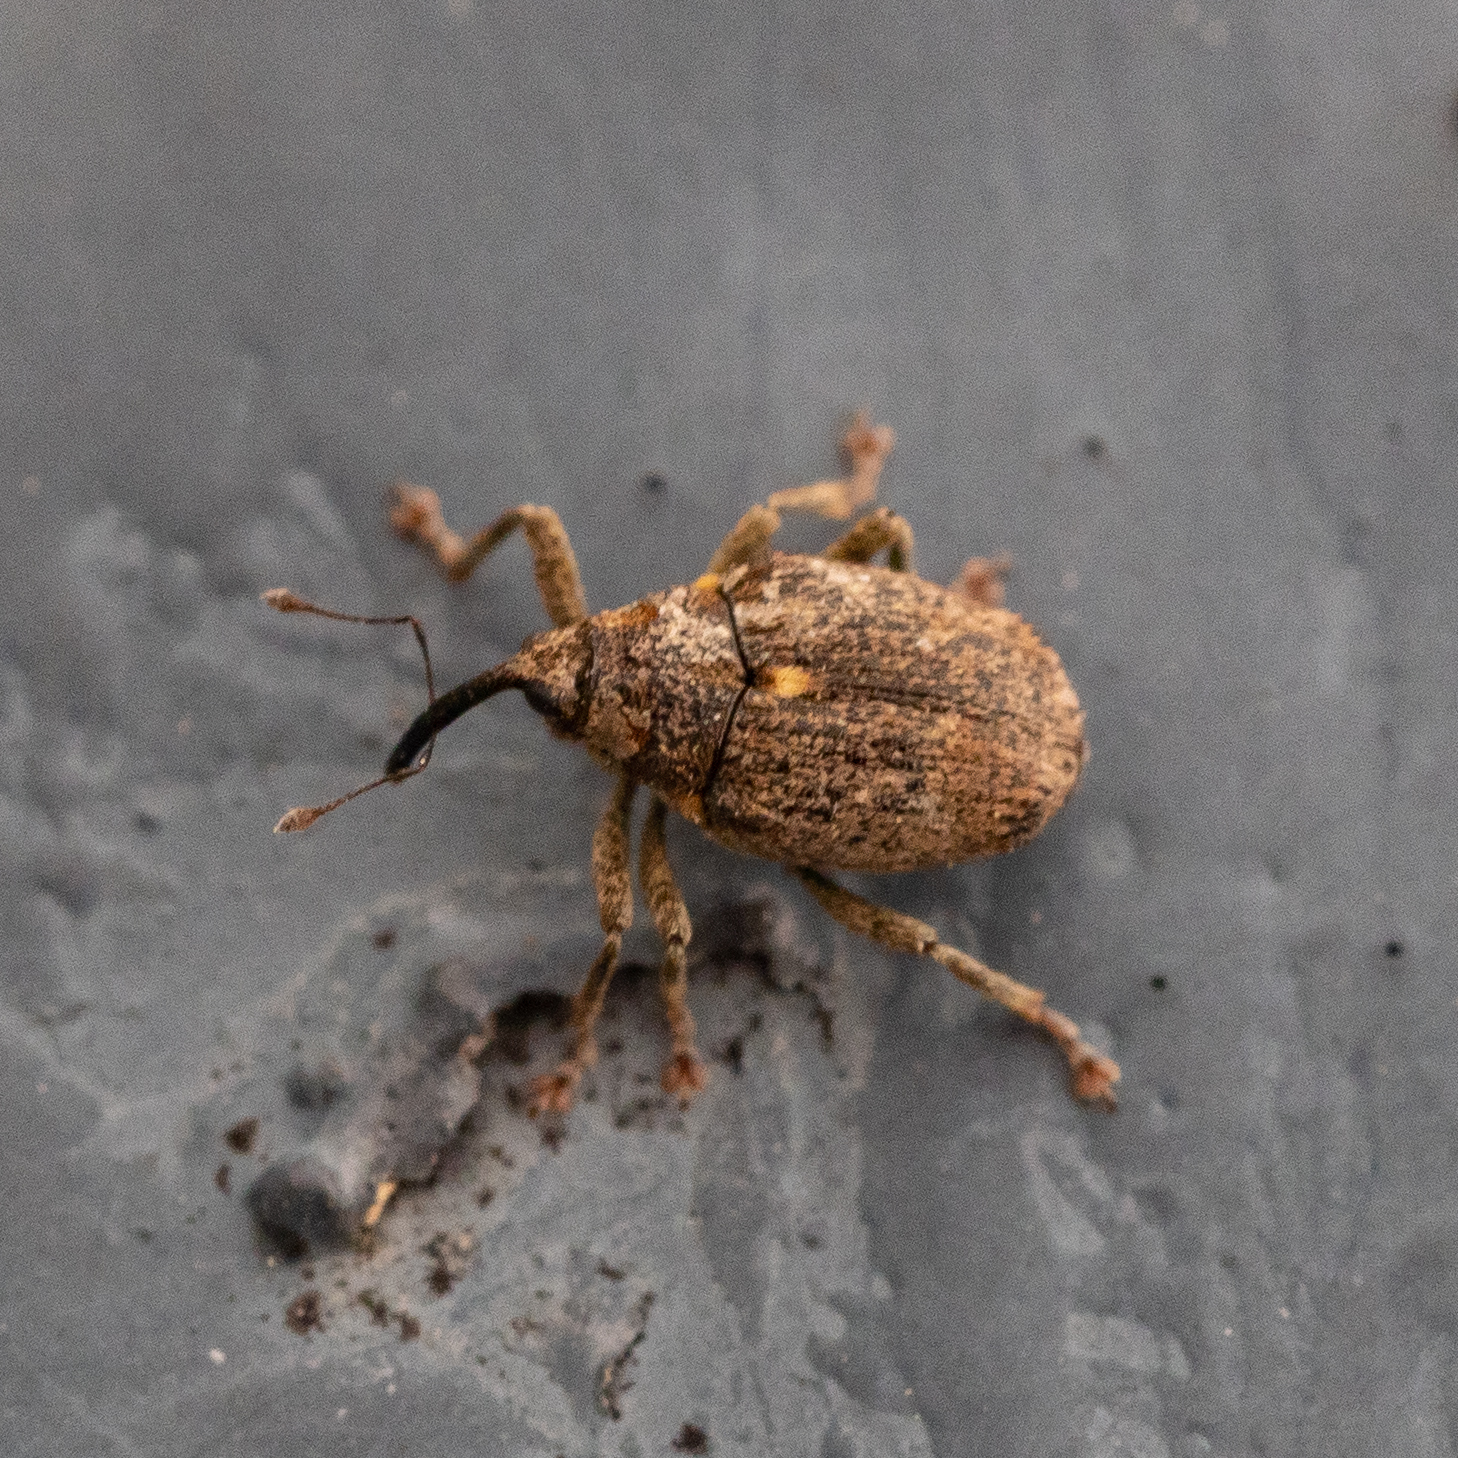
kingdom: Animalia
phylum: Arthropoda
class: Insecta
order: Coleoptera
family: Curculionidae
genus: Ceutorhynchus
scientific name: Ceutorhynchus pallidactylus
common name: Cabbage stem weavil
